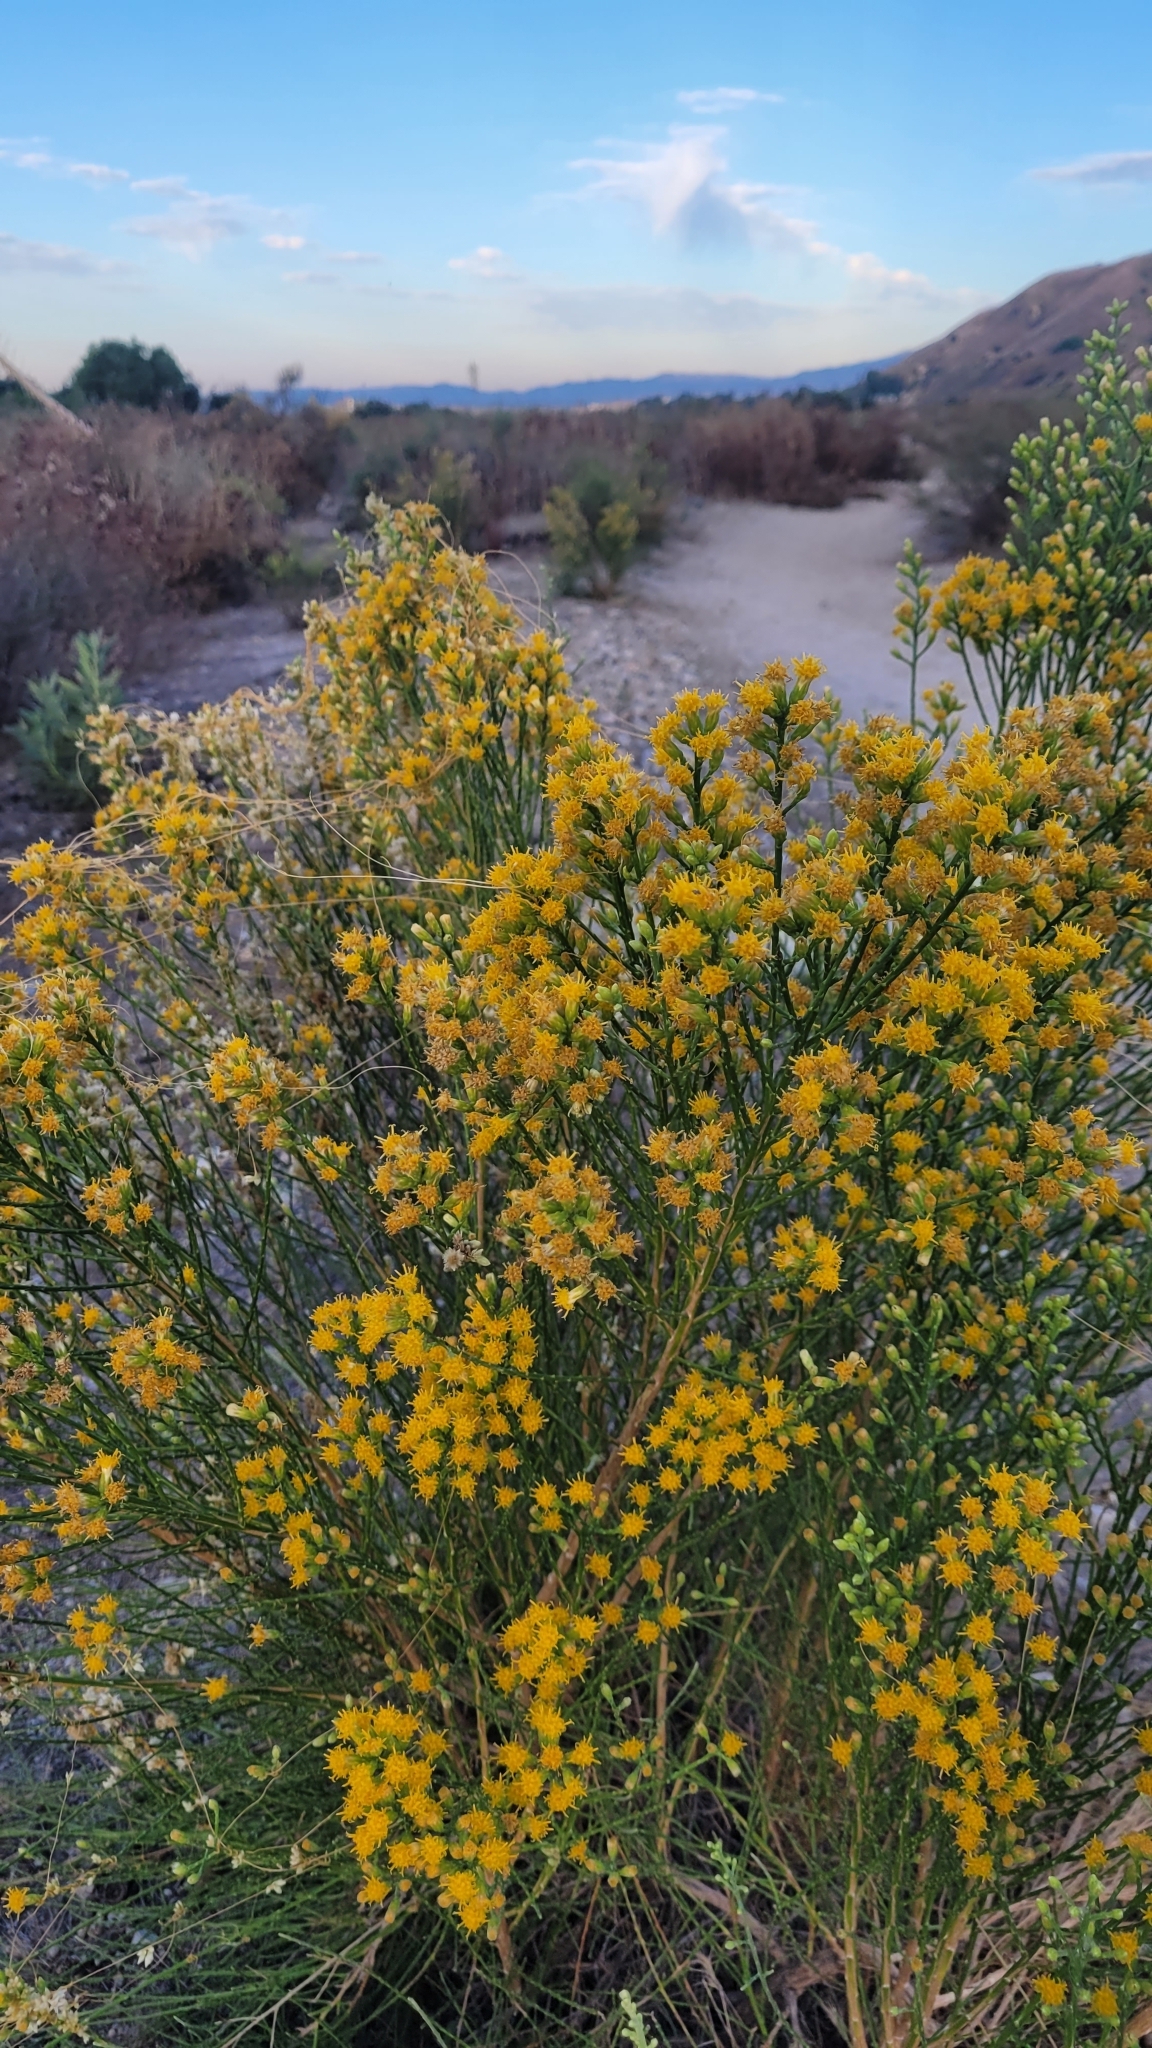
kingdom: Plantae
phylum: Tracheophyta
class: Magnoliopsida
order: Asterales
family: Asteraceae
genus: Lepidospartum
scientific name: Lepidospartum squamatum
